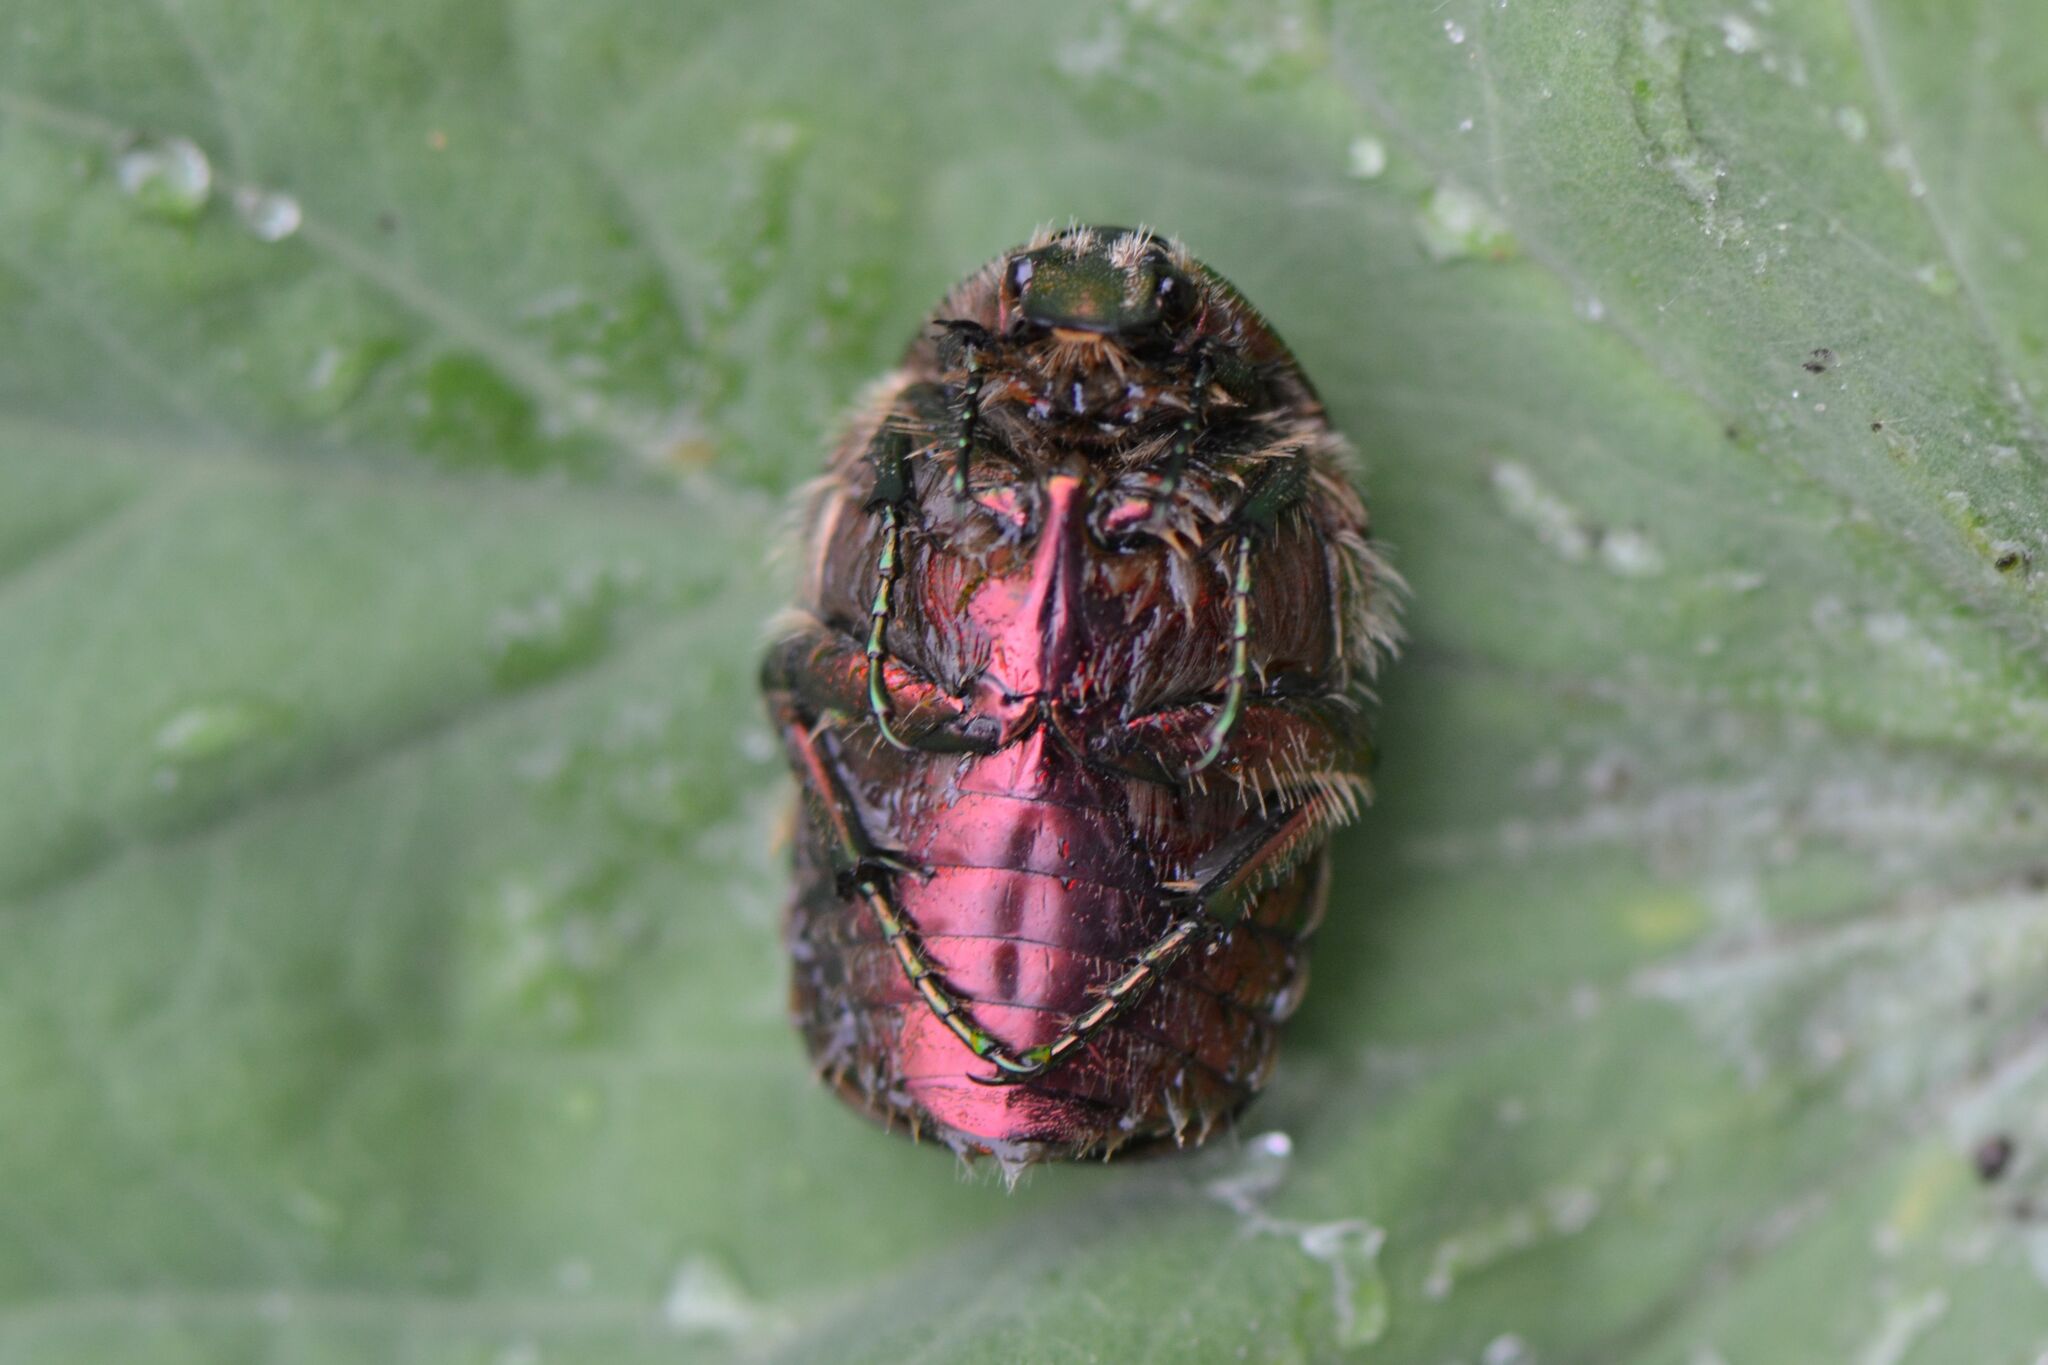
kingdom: Animalia
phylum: Arthropoda
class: Insecta
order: Coleoptera
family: Scarabaeidae
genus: Cetonia
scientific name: Cetonia aurata
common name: Rose chafer
